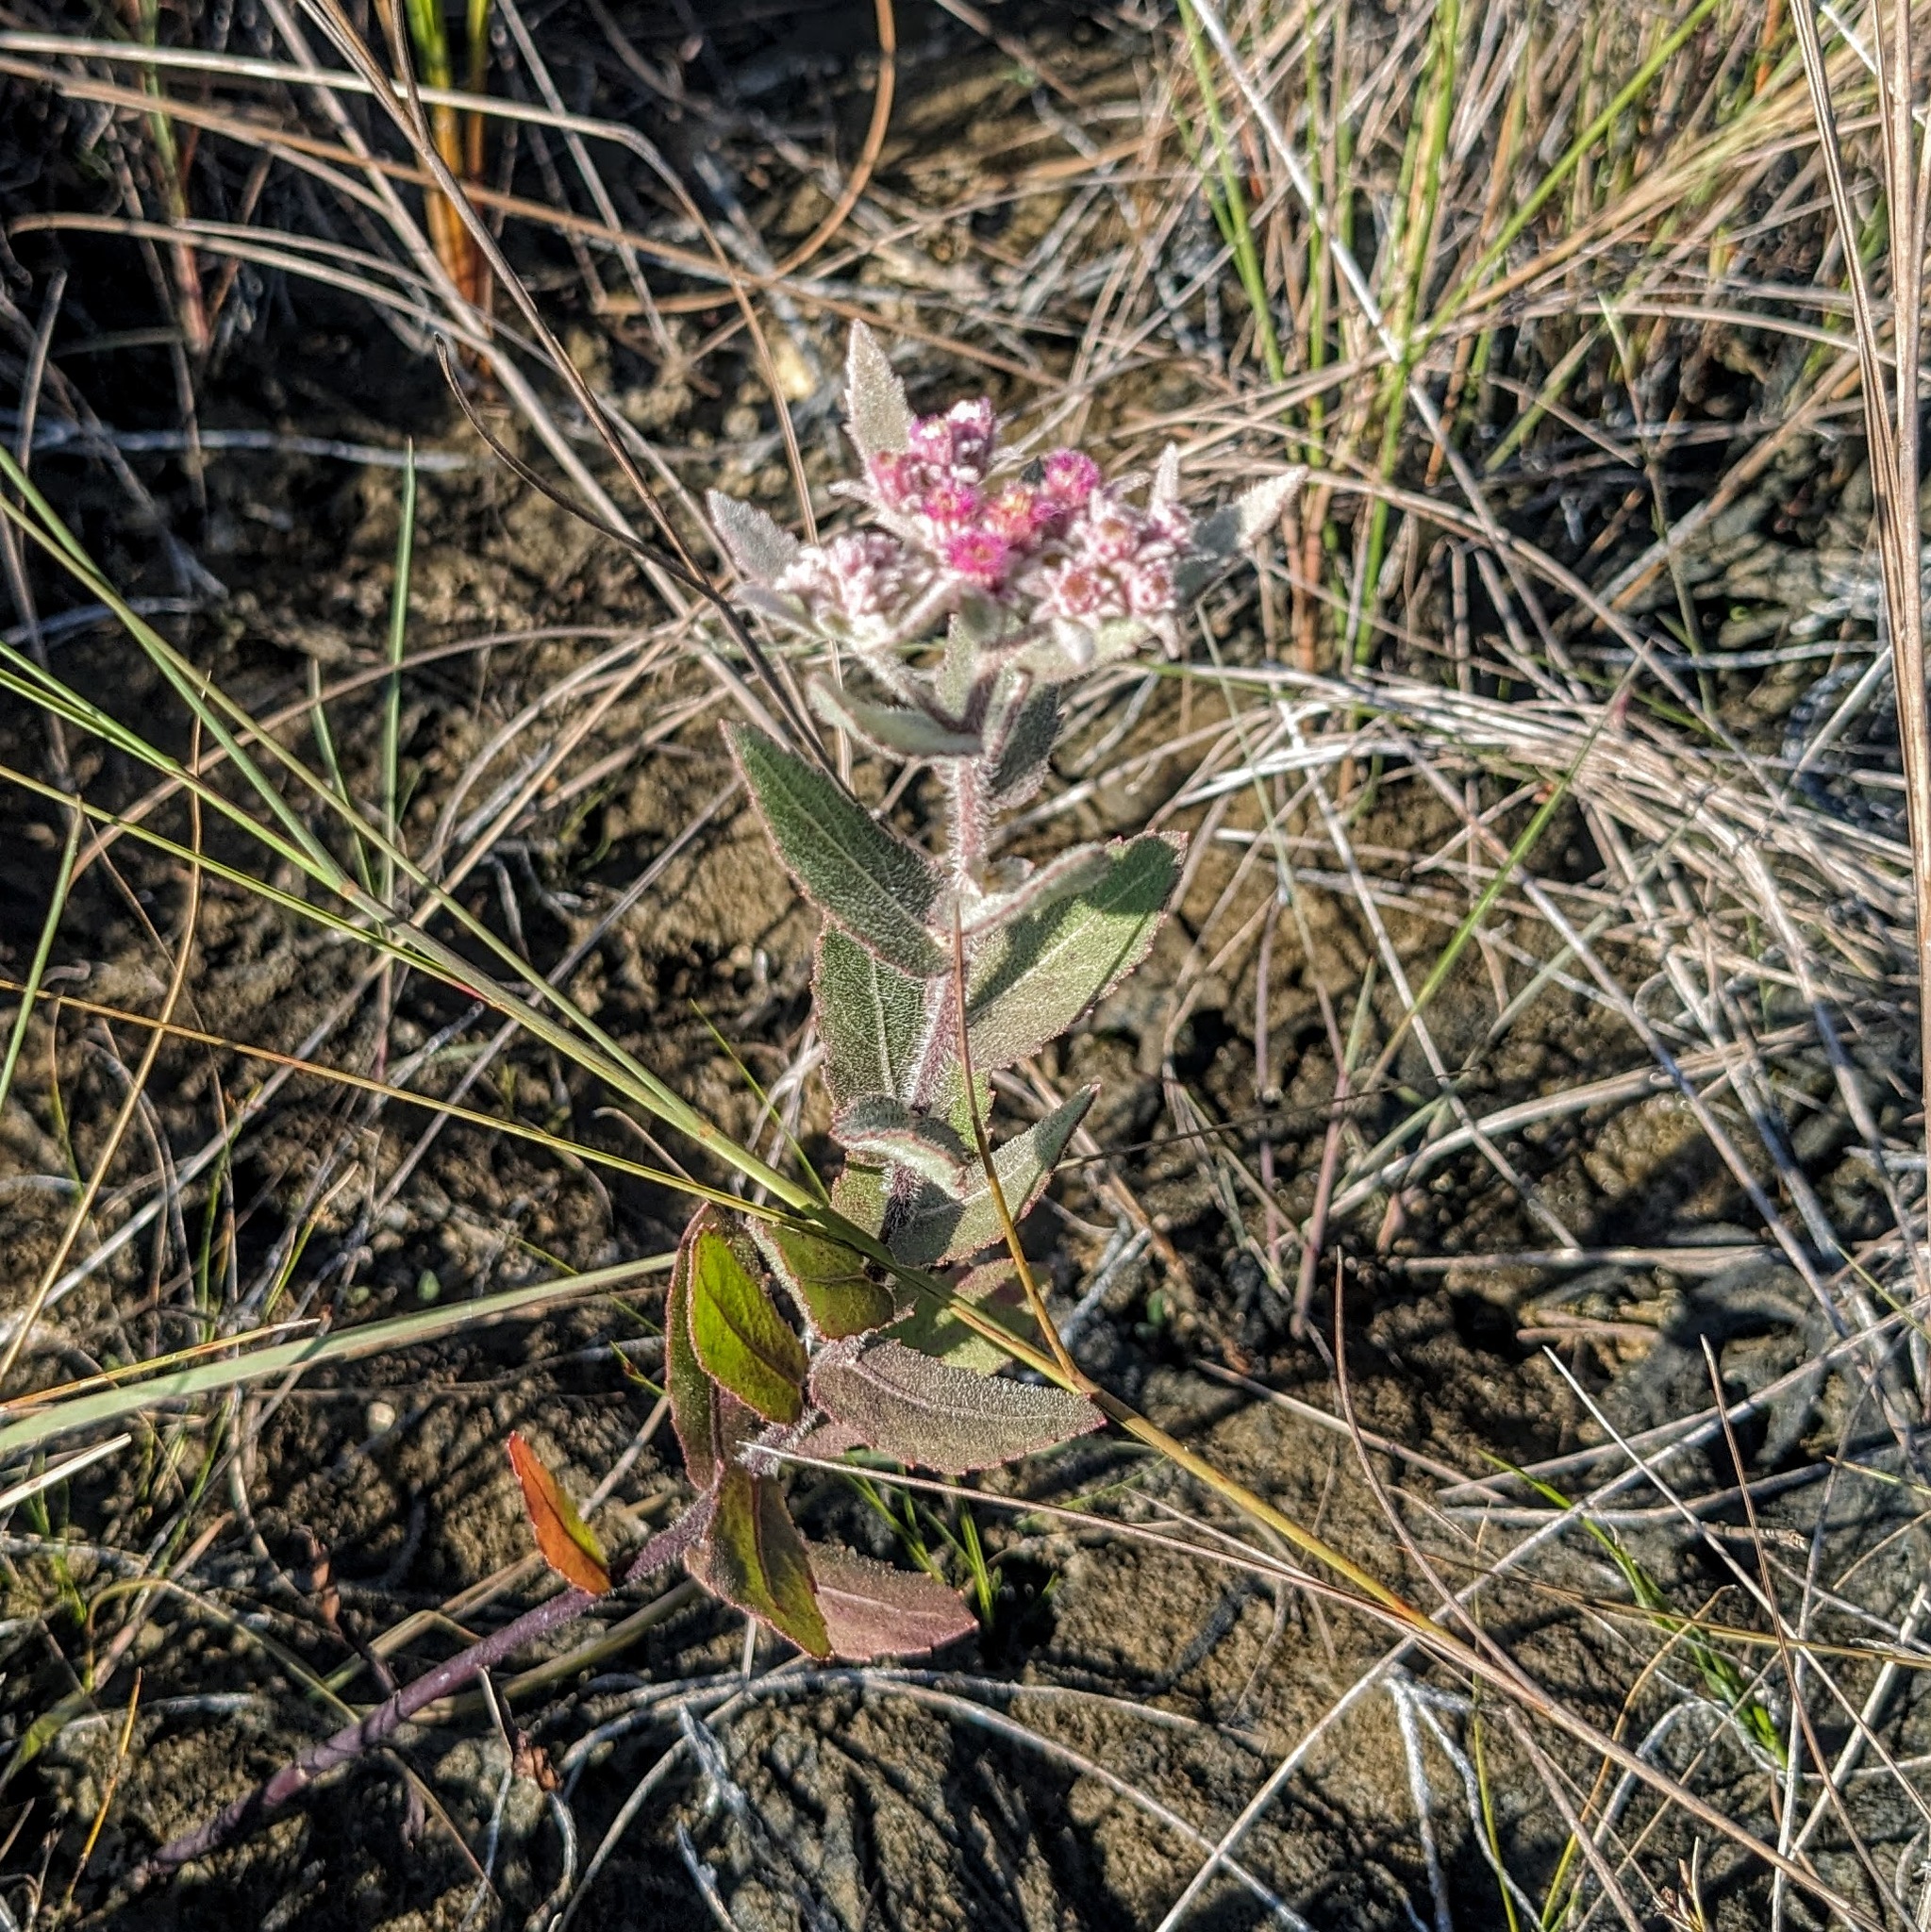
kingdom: Plantae
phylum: Tracheophyta
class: Magnoliopsida
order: Asterales
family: Asteraceae
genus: Pluchea
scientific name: Pluchea baccharis
